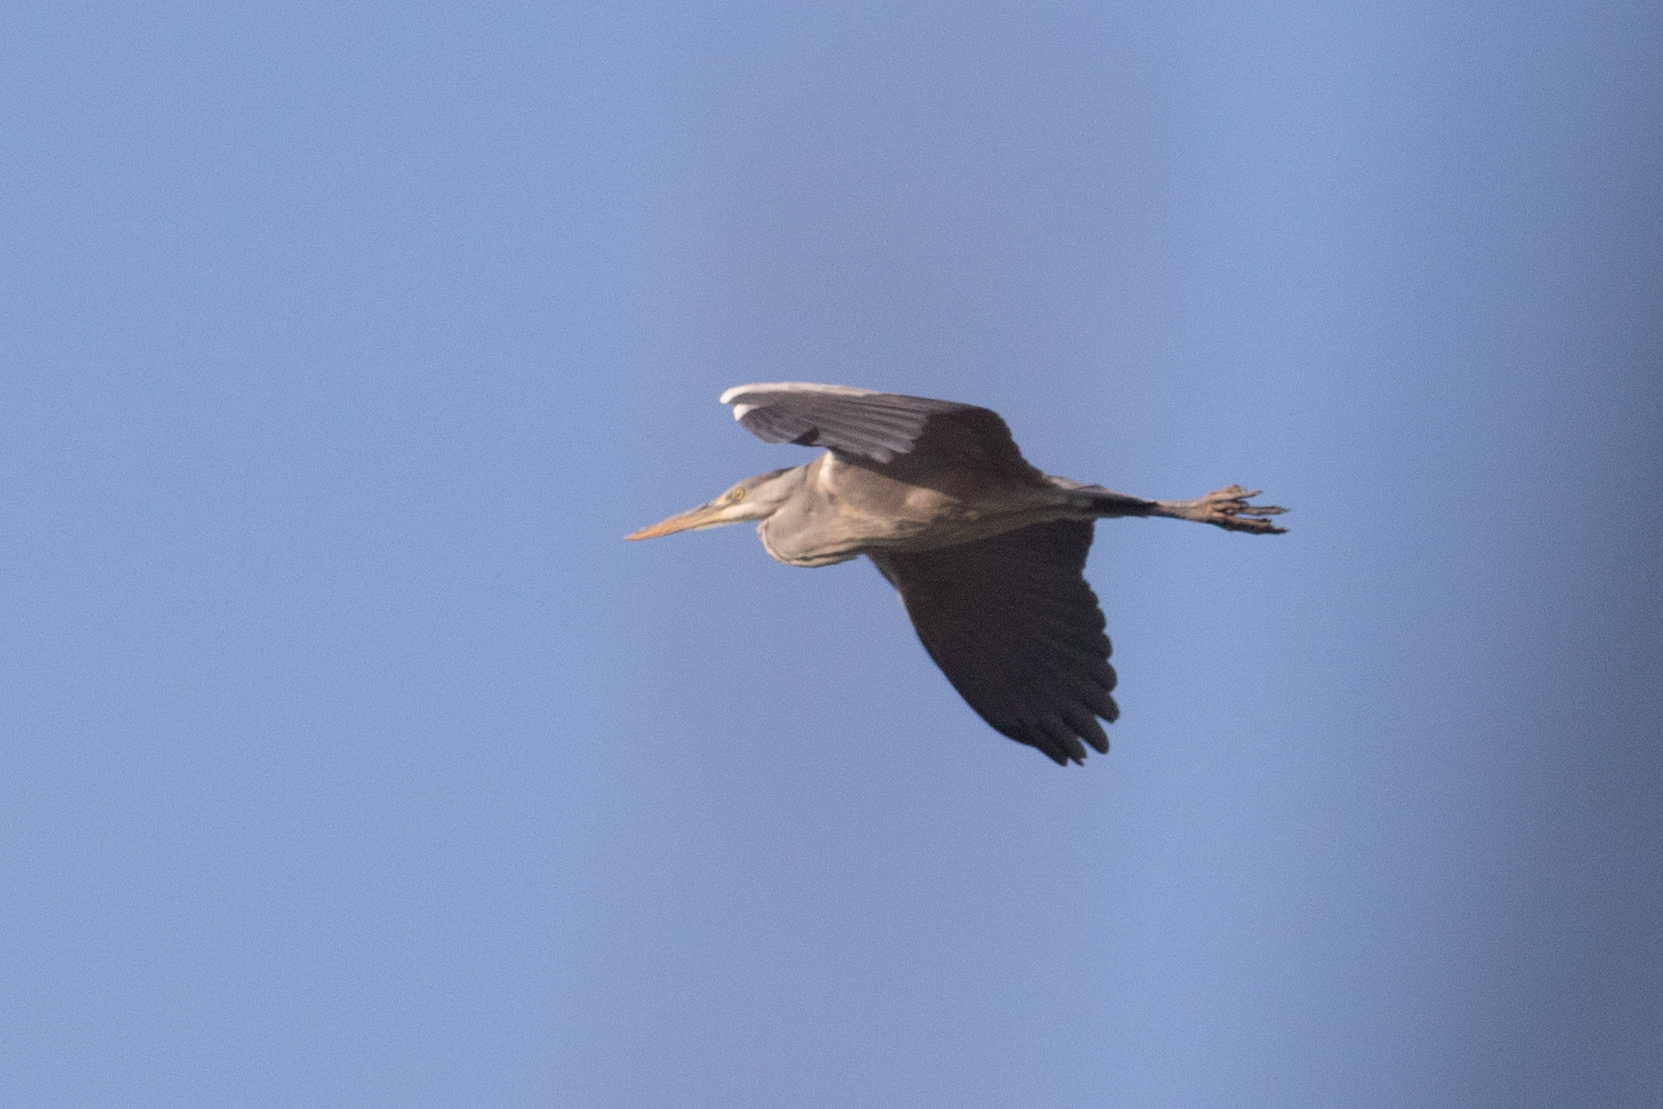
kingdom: Animalia
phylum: Chordata
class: Aves
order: Pelecaniformes
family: Ardeidae
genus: Ardea
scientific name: Ardea cinerea
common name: Grey heron
